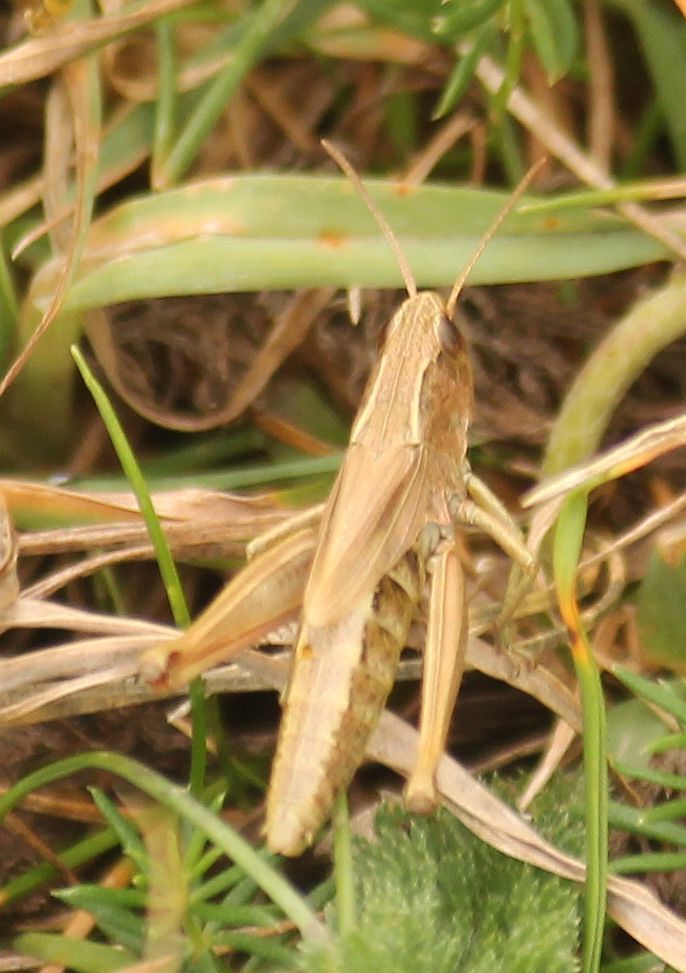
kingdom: Animalia
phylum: Arthropoda
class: Insecta
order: Orthoptera
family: Acrididae
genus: Pseudochorthippus
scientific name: Pseudochorthippus parallelus
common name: Meadow grasshopper
